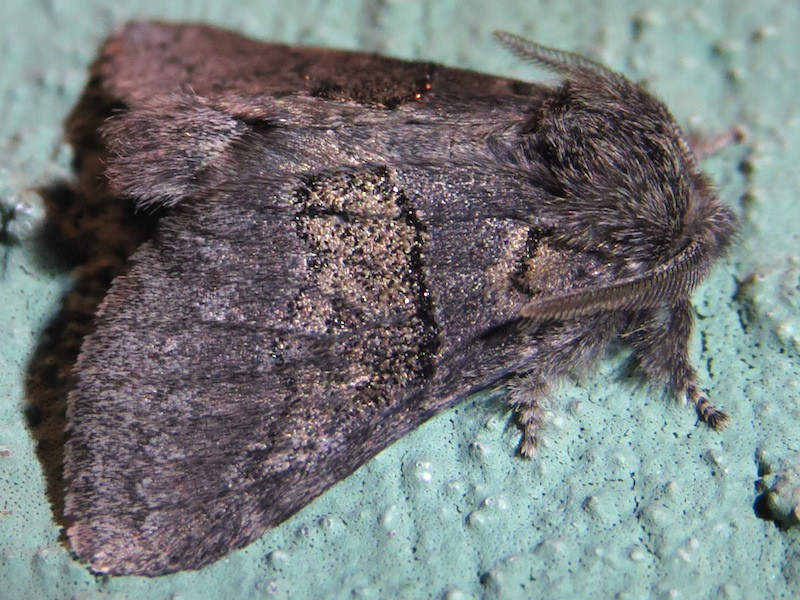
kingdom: Animalia
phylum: Arthropoda
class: Insecta
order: Lepidoptera
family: Notodontidae
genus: Gluphisia
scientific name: Gluphisia septentrionis
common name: Common gluphisia
